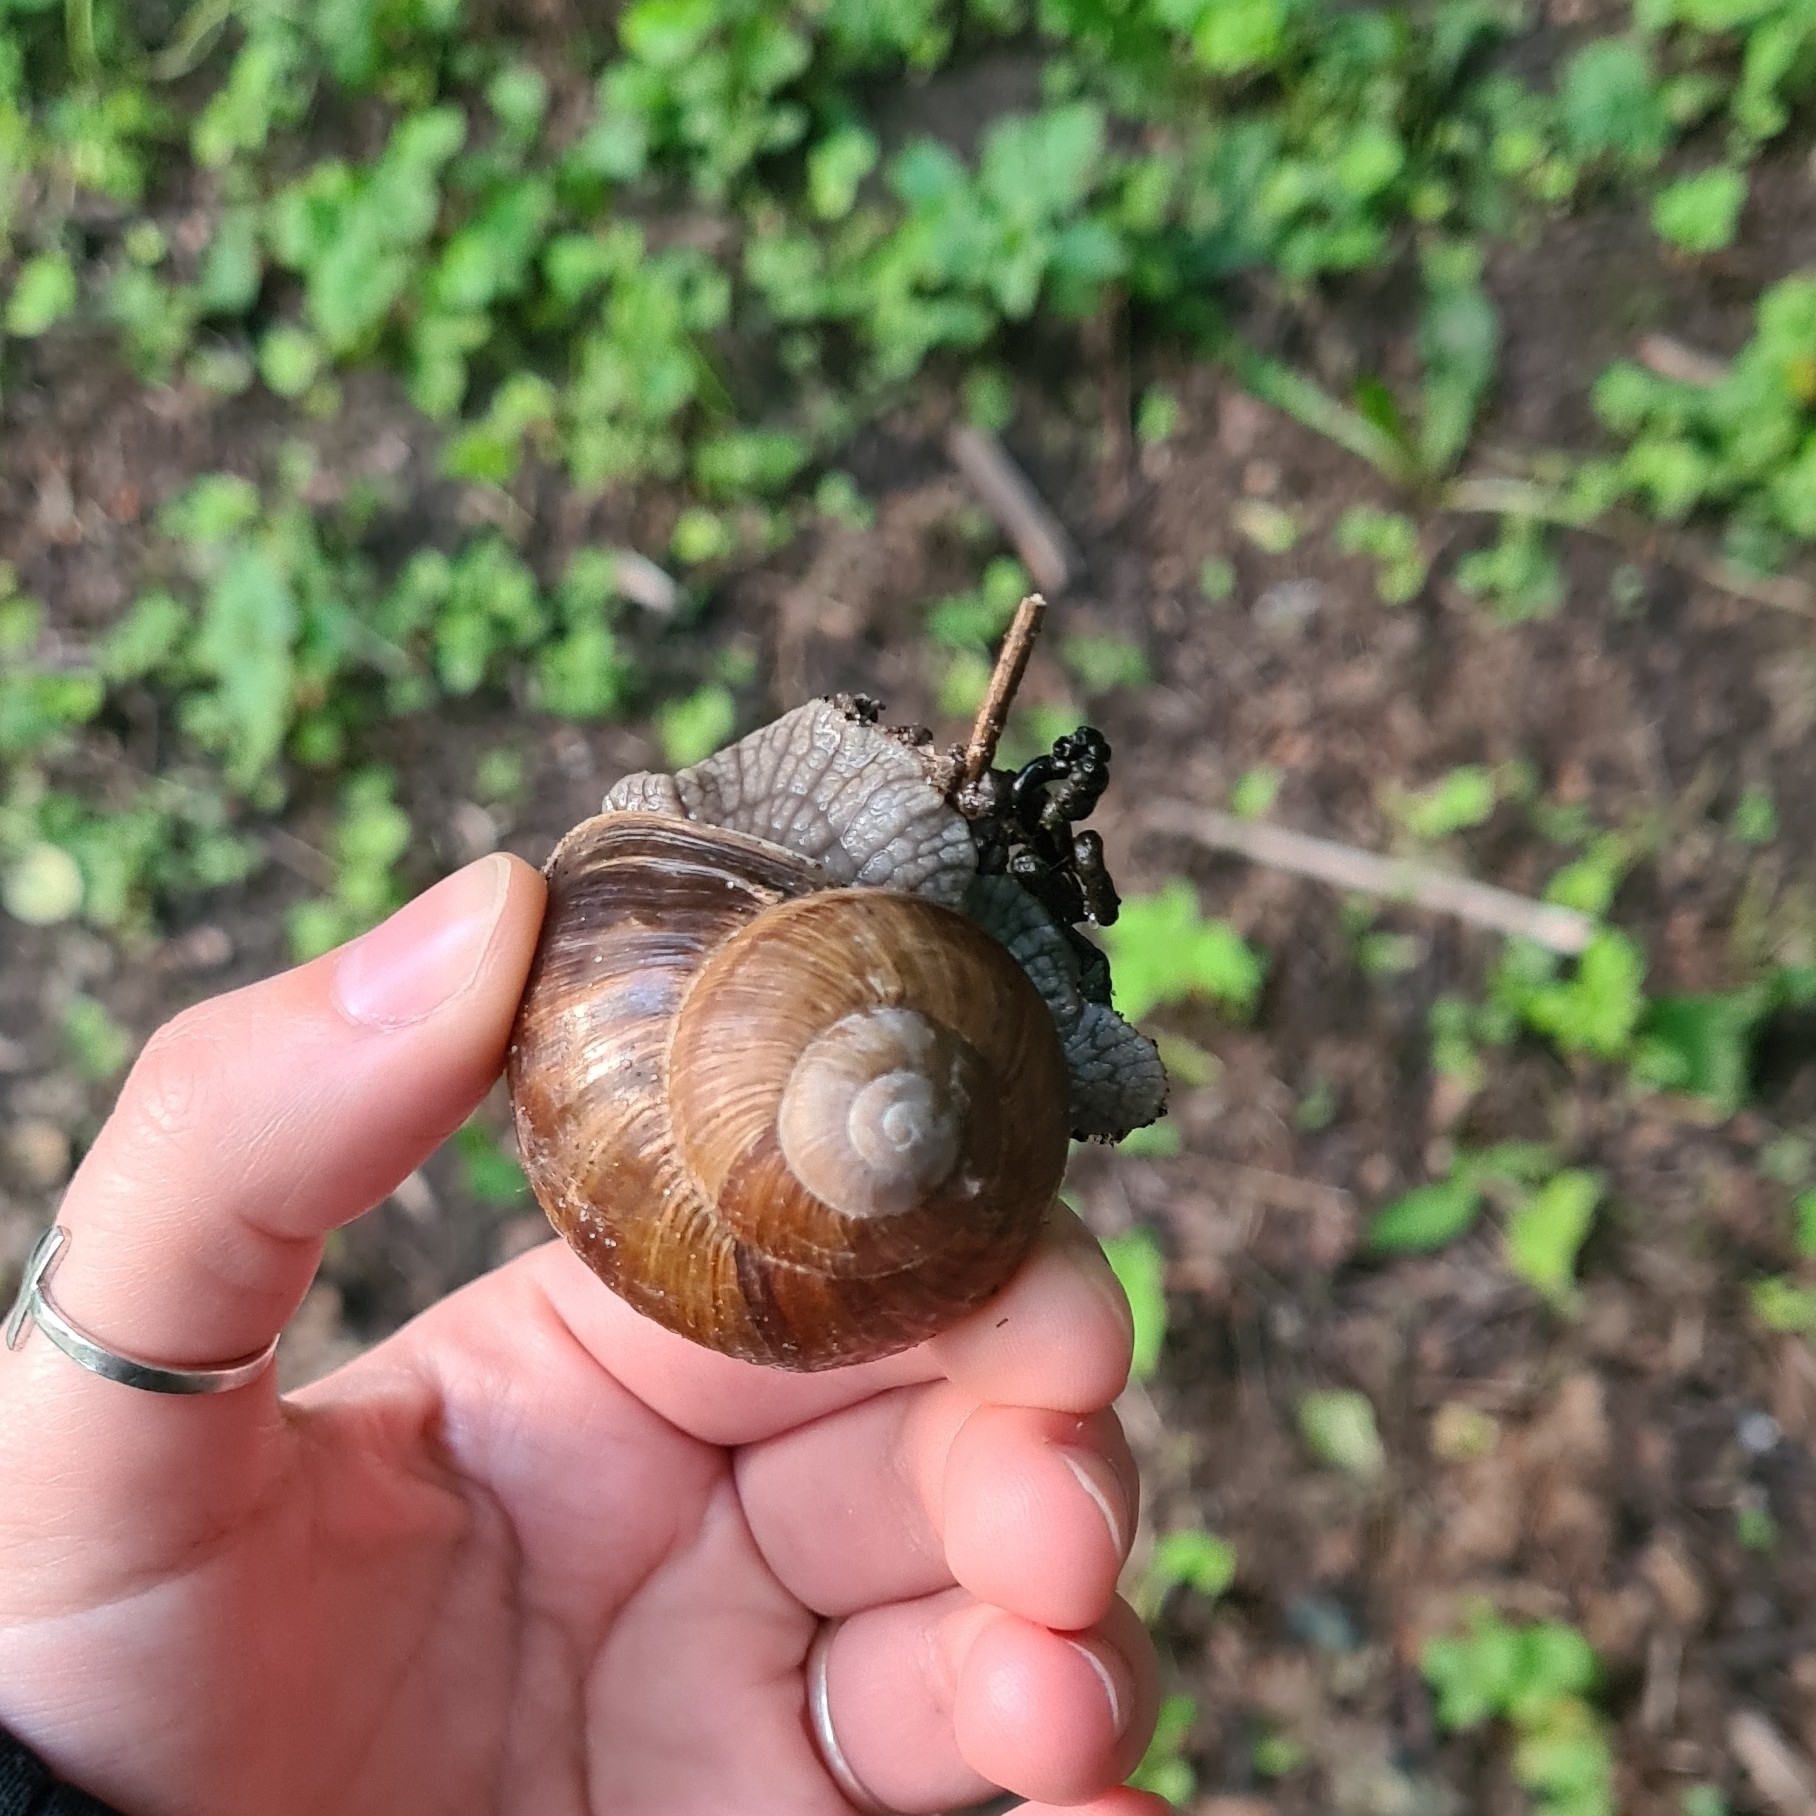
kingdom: Animalia
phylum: Mollusca
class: Gastropoda
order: Stylommatophora
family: Helicidae
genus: Helix
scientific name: Helix pomatia
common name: Roman snail
